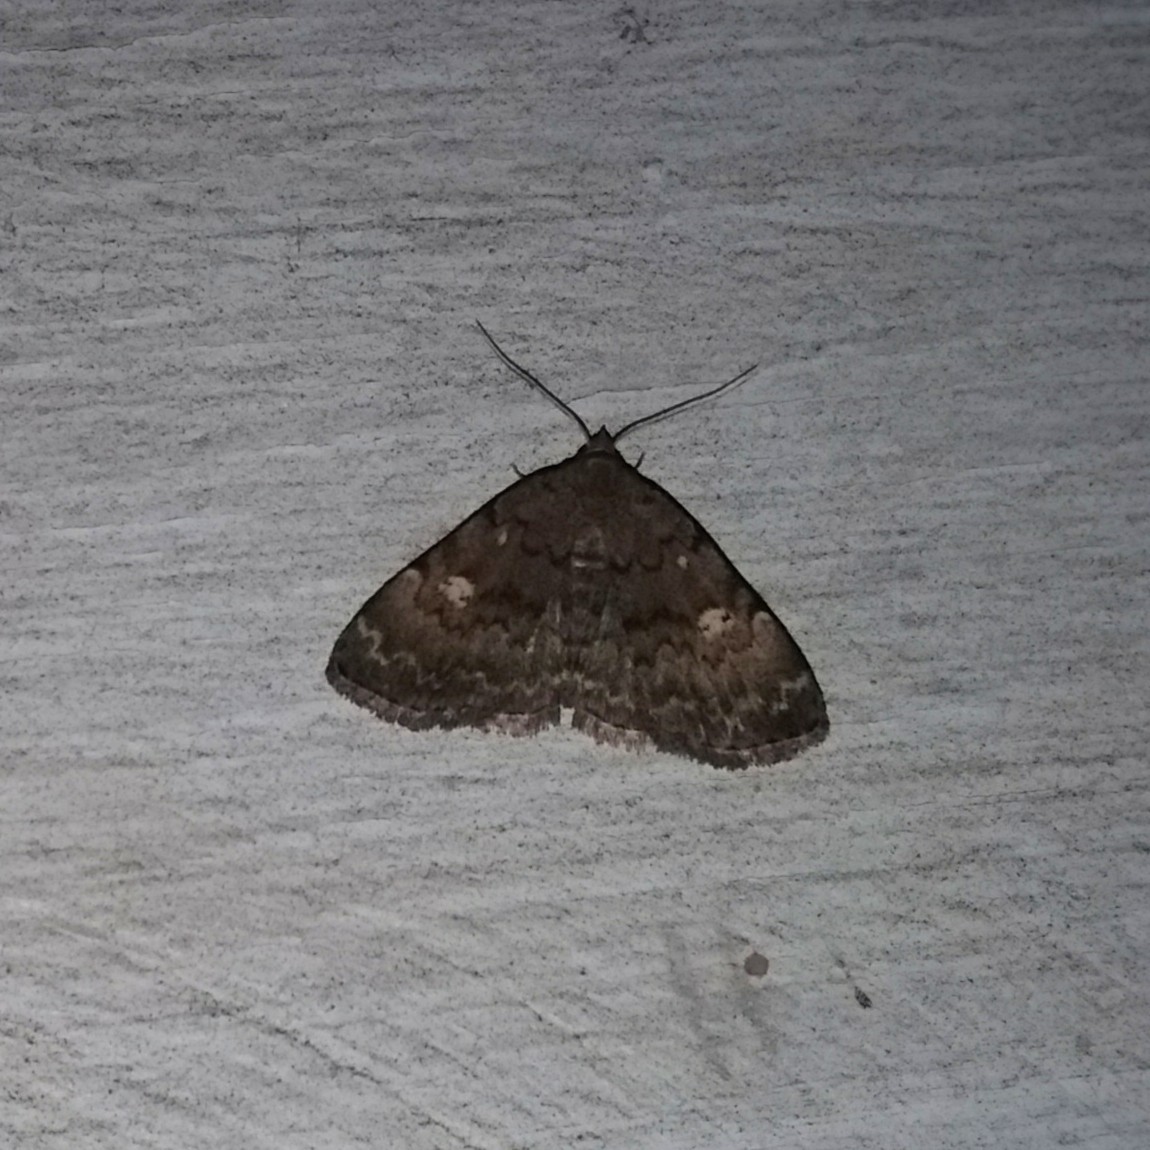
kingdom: Animalia
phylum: Arthropoda
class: Insecta
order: Lepidoptera
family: Erebidae
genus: Idia
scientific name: Idia aemula
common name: Common idia moth
